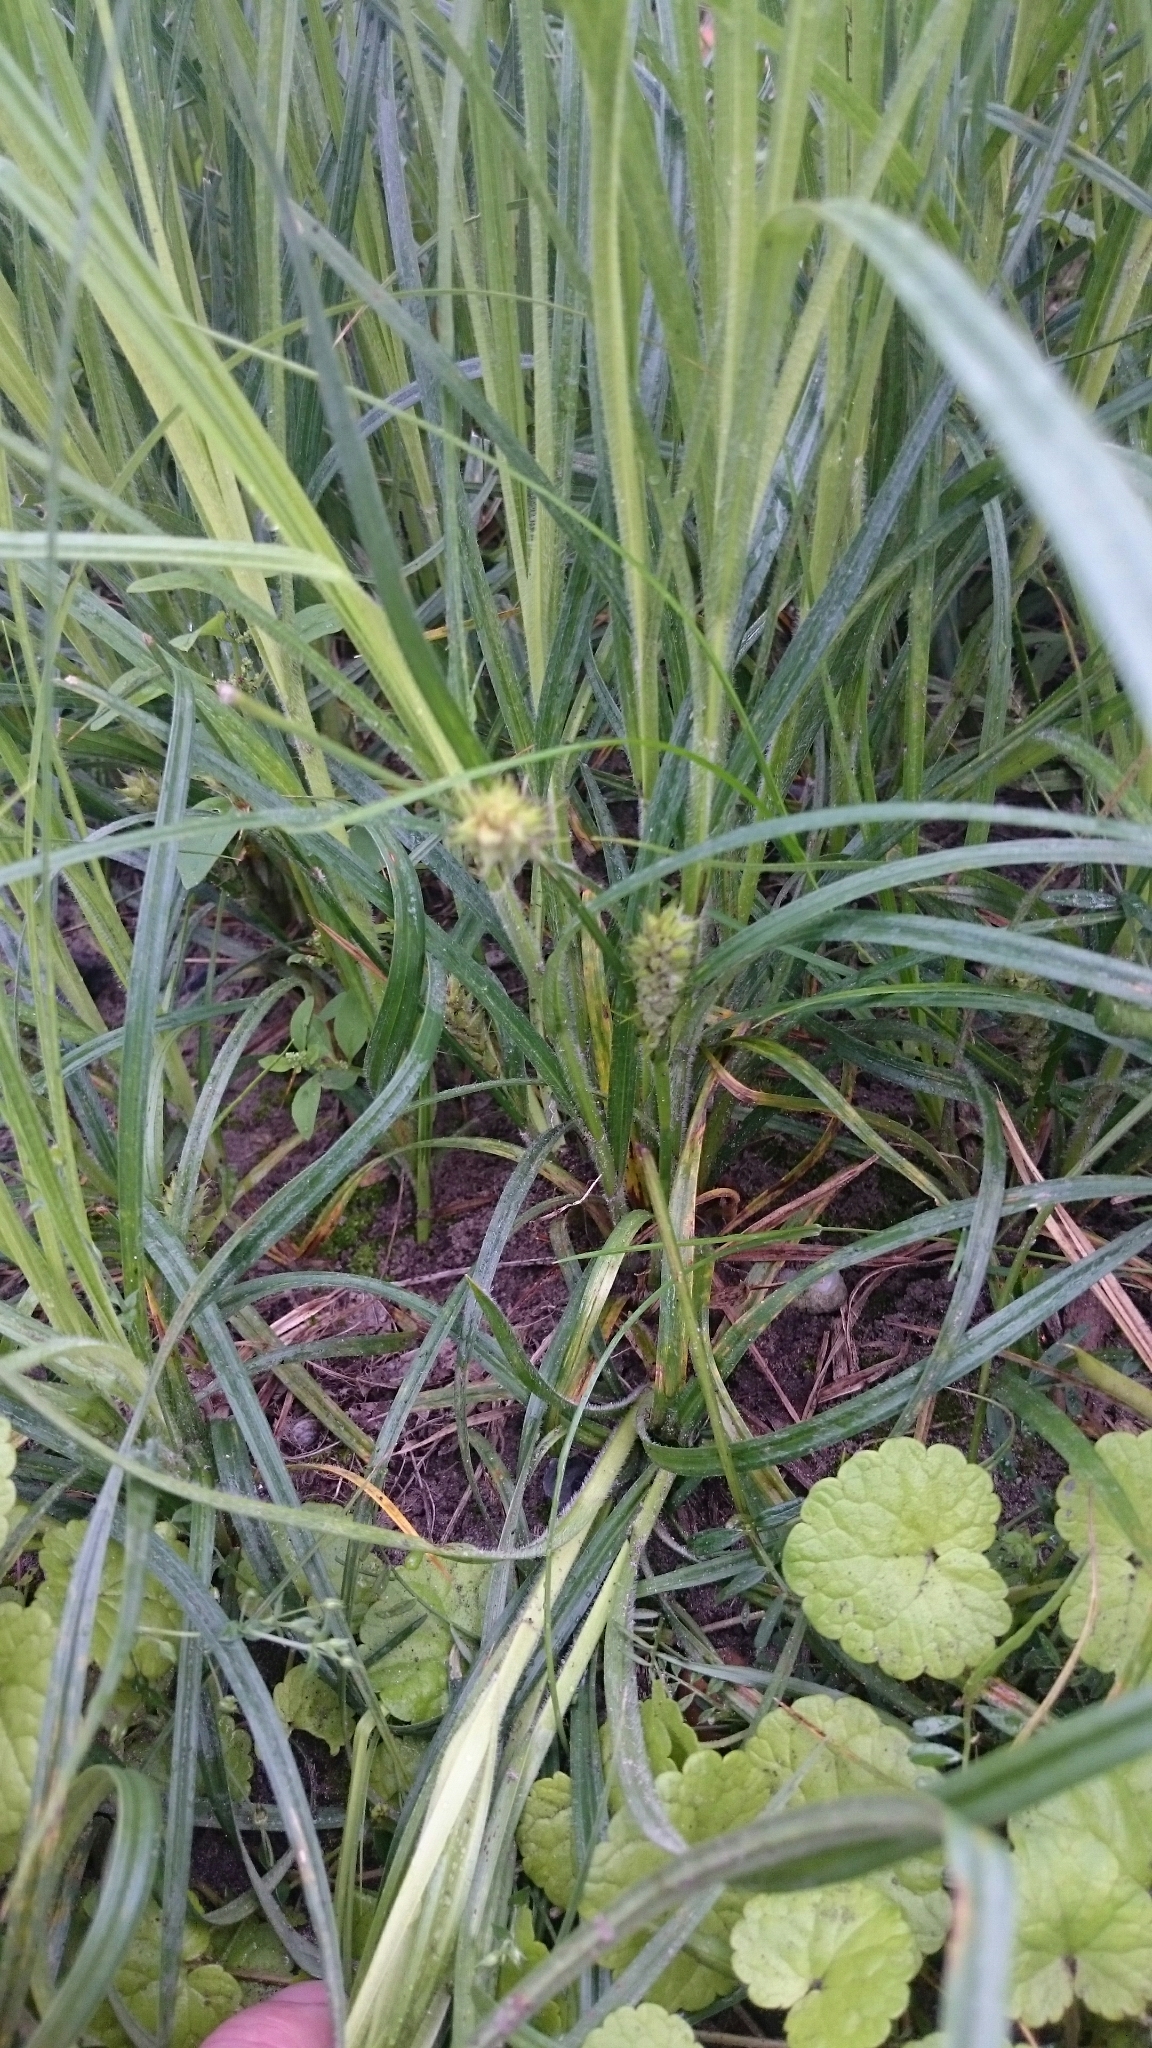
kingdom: Plantae
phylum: Tracheophyta
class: Liliopsida
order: Poales
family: Cyperaceae
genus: Carex
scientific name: Carex hirta
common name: Hairy sedge
